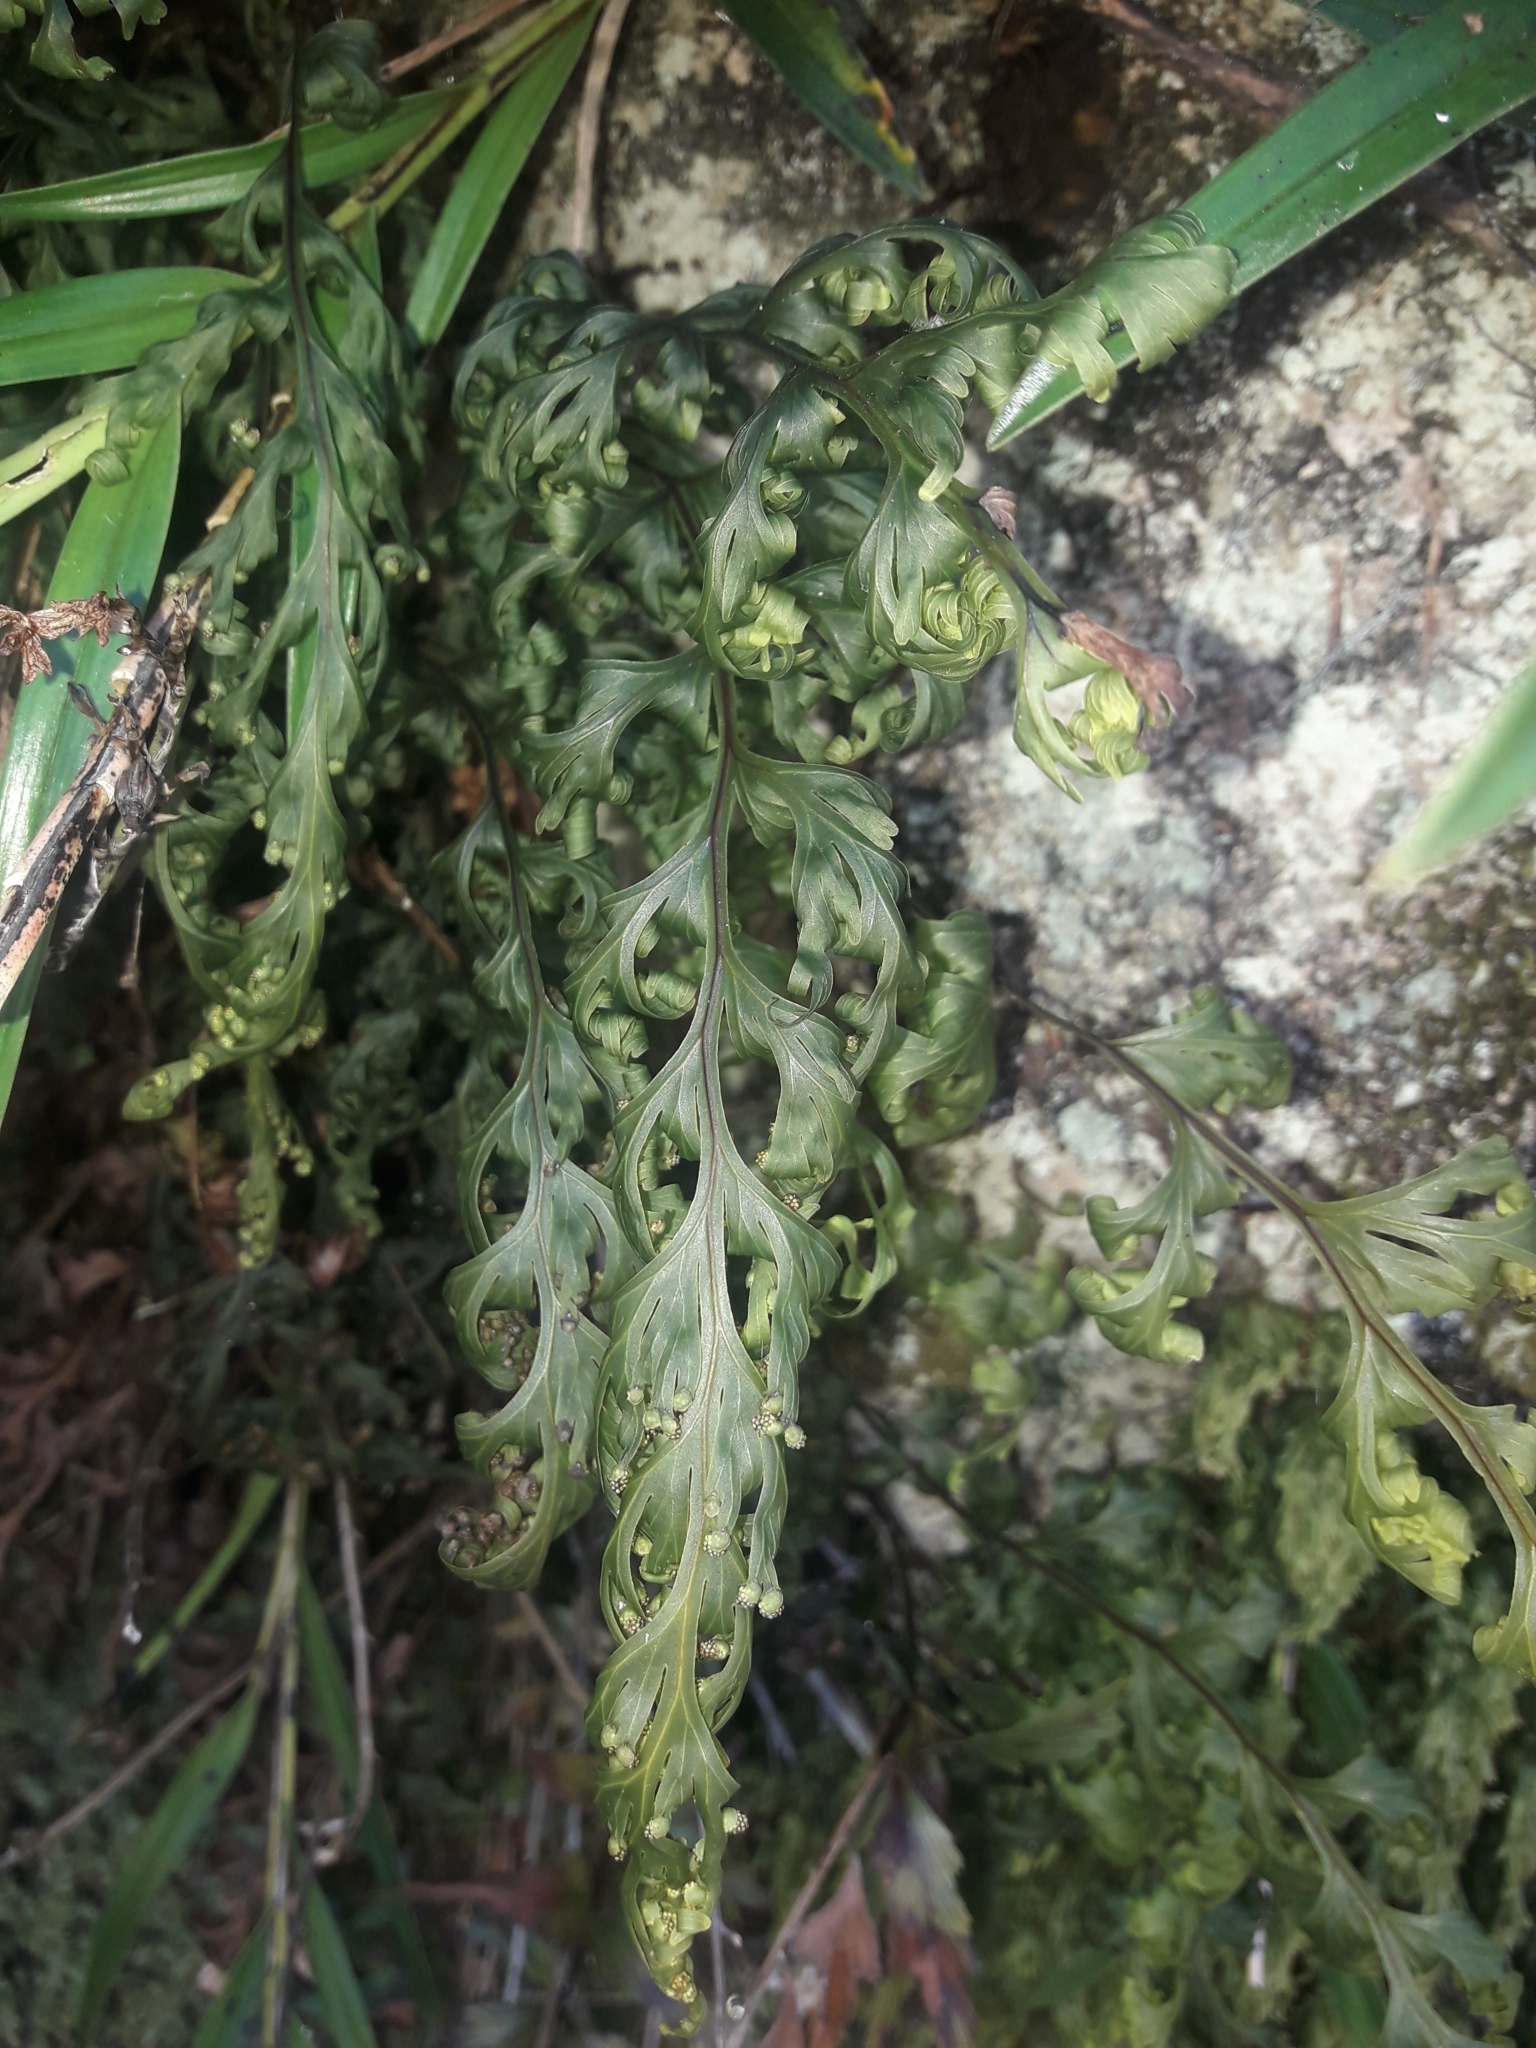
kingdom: Plantae
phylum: Tracheophyta
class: Polypodiopsida
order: Hymenophyllales
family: Hymenophyllaceae
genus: Hymenophyllum
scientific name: Hymenophyllum dilatatum
